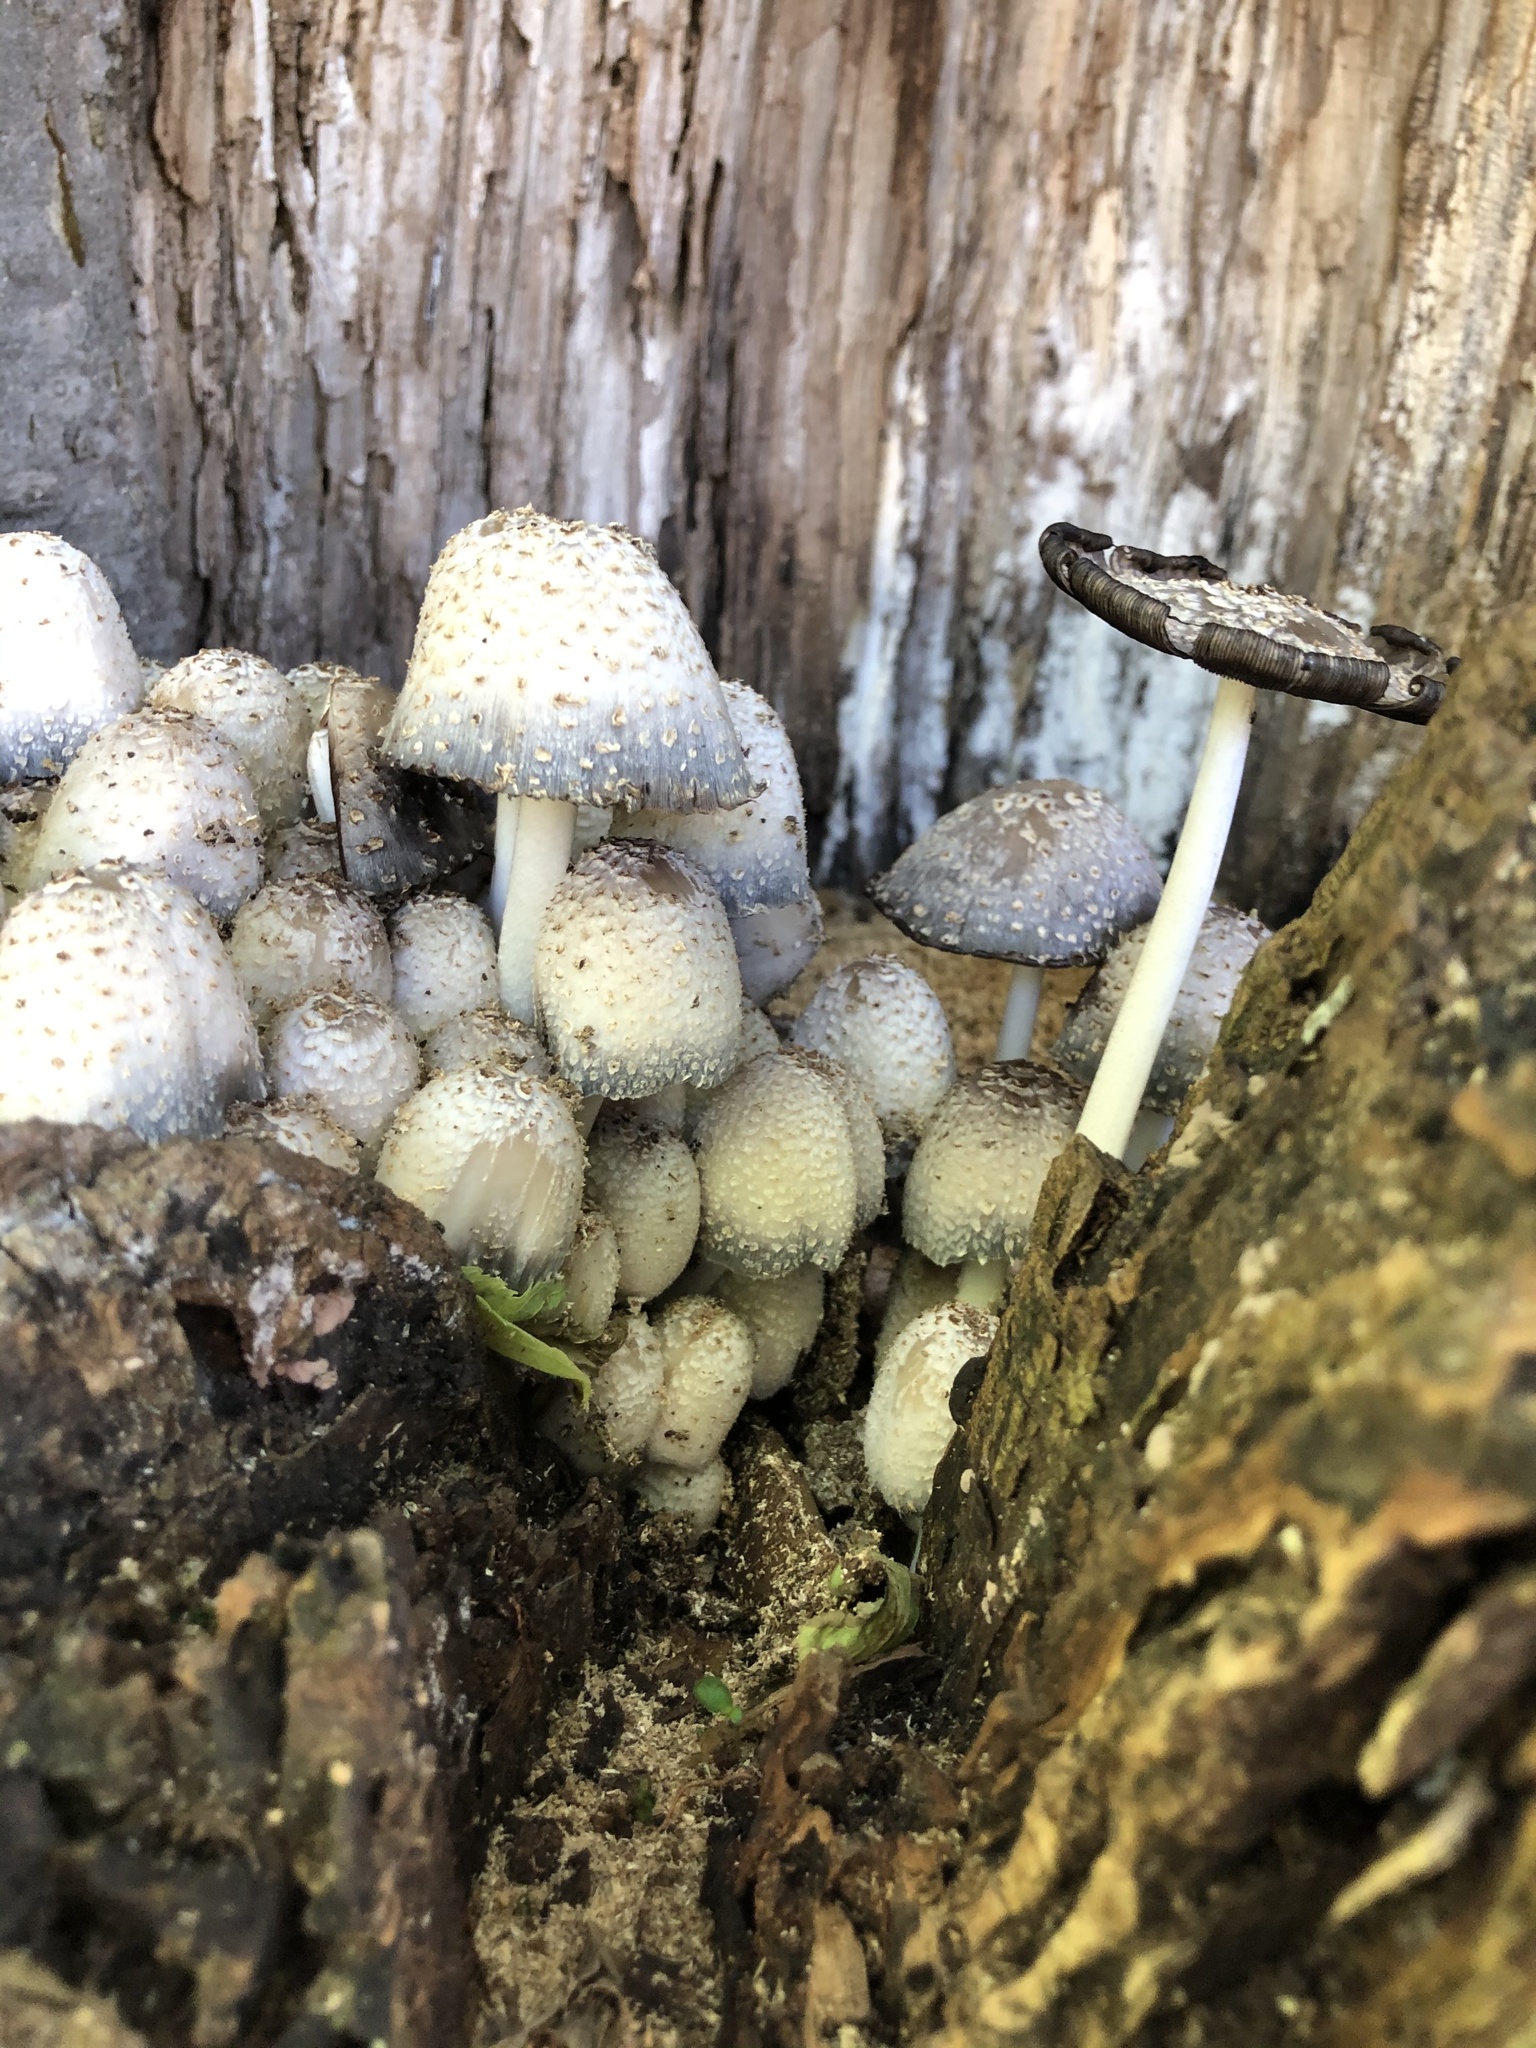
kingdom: Fungi
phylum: Basidiomycota
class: Agaricomycetes
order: Agaricales
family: Psathyrellaceae
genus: Coprinopsis
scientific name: Coprinopsis variegata
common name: Scaly ink cap
